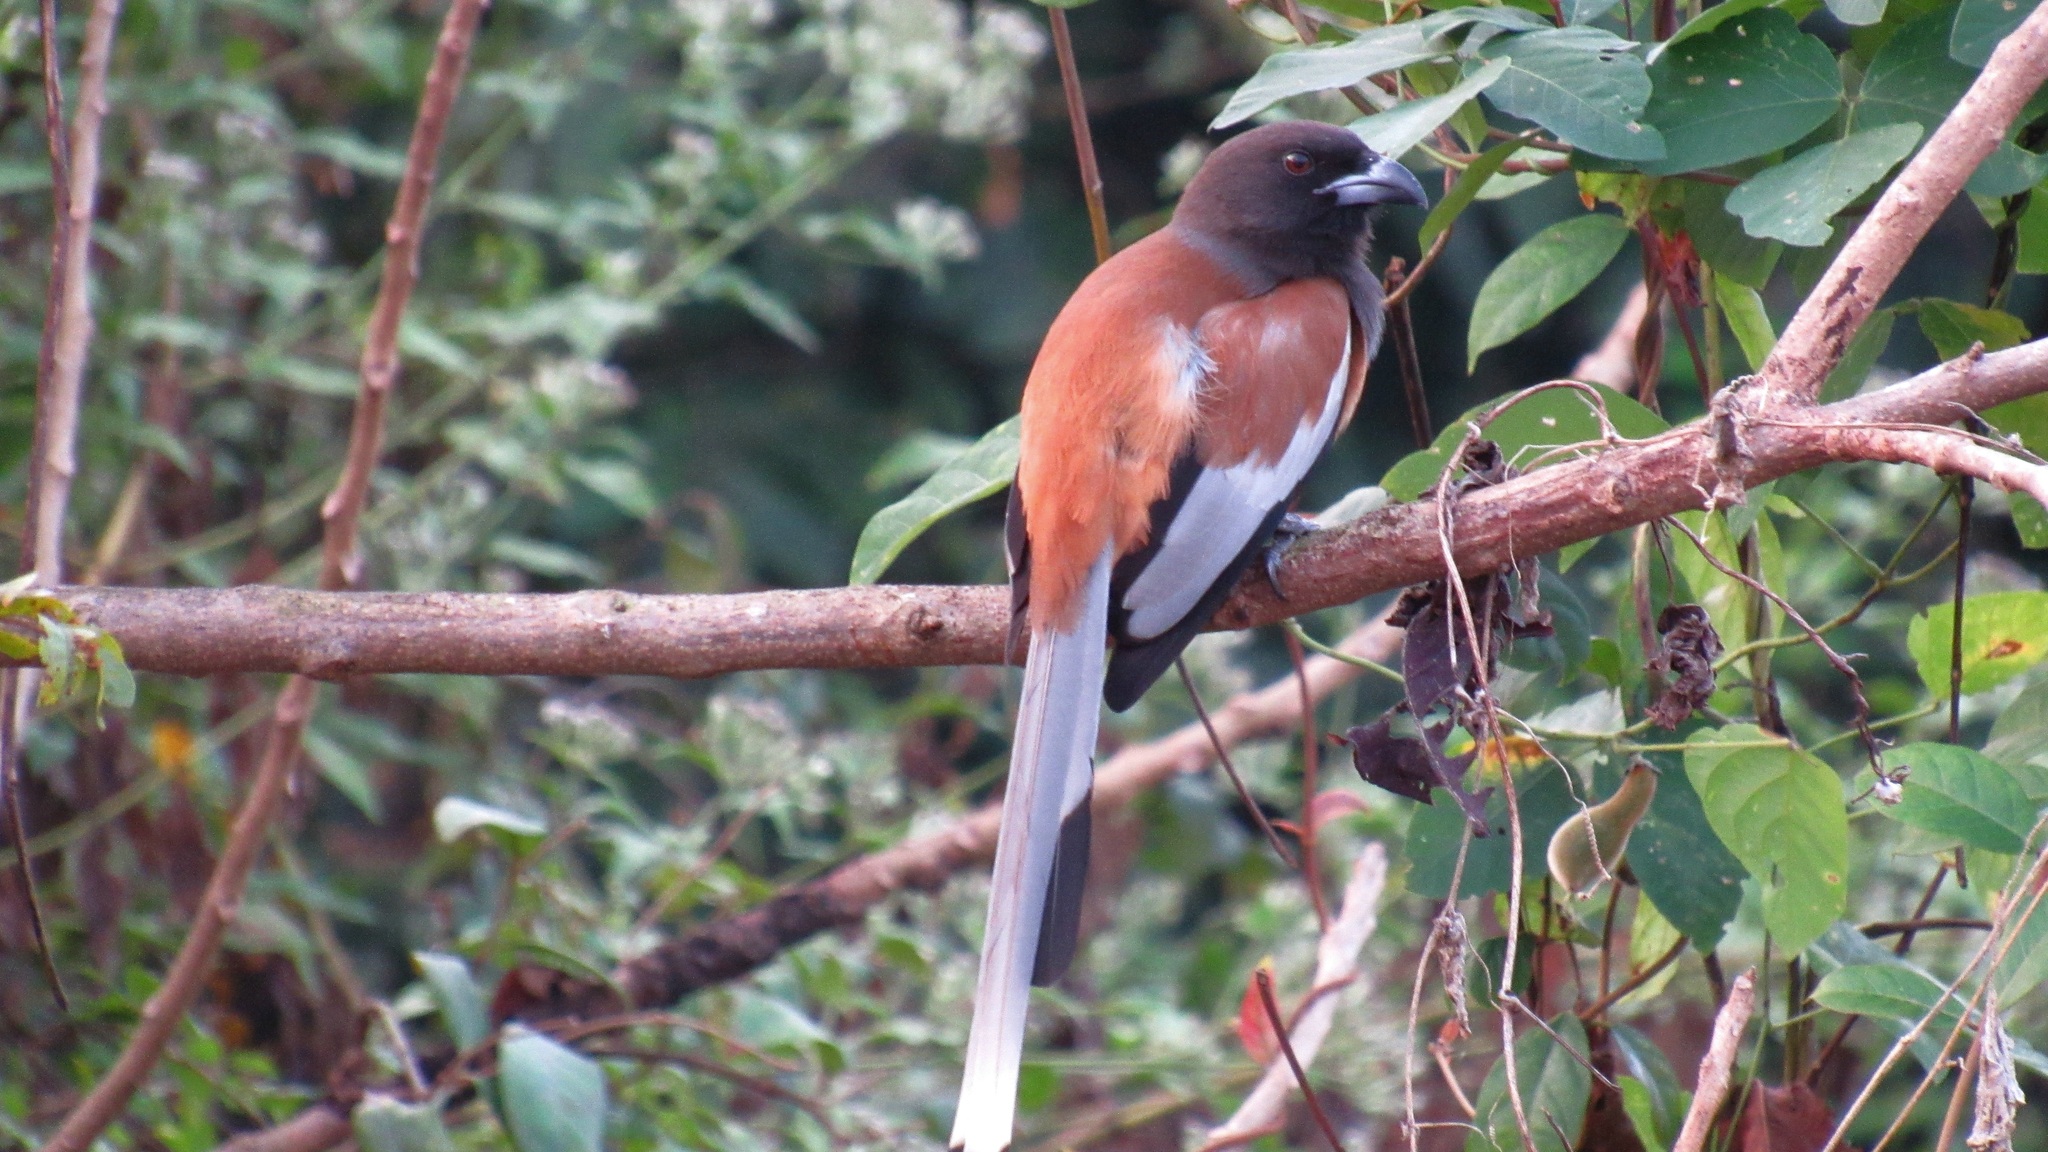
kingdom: Animalia
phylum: Chordata
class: Aves
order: Passeriformes
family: Corvidae
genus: Dendrocitta
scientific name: Dendrocitta vagabunda
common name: Rufous treepie
